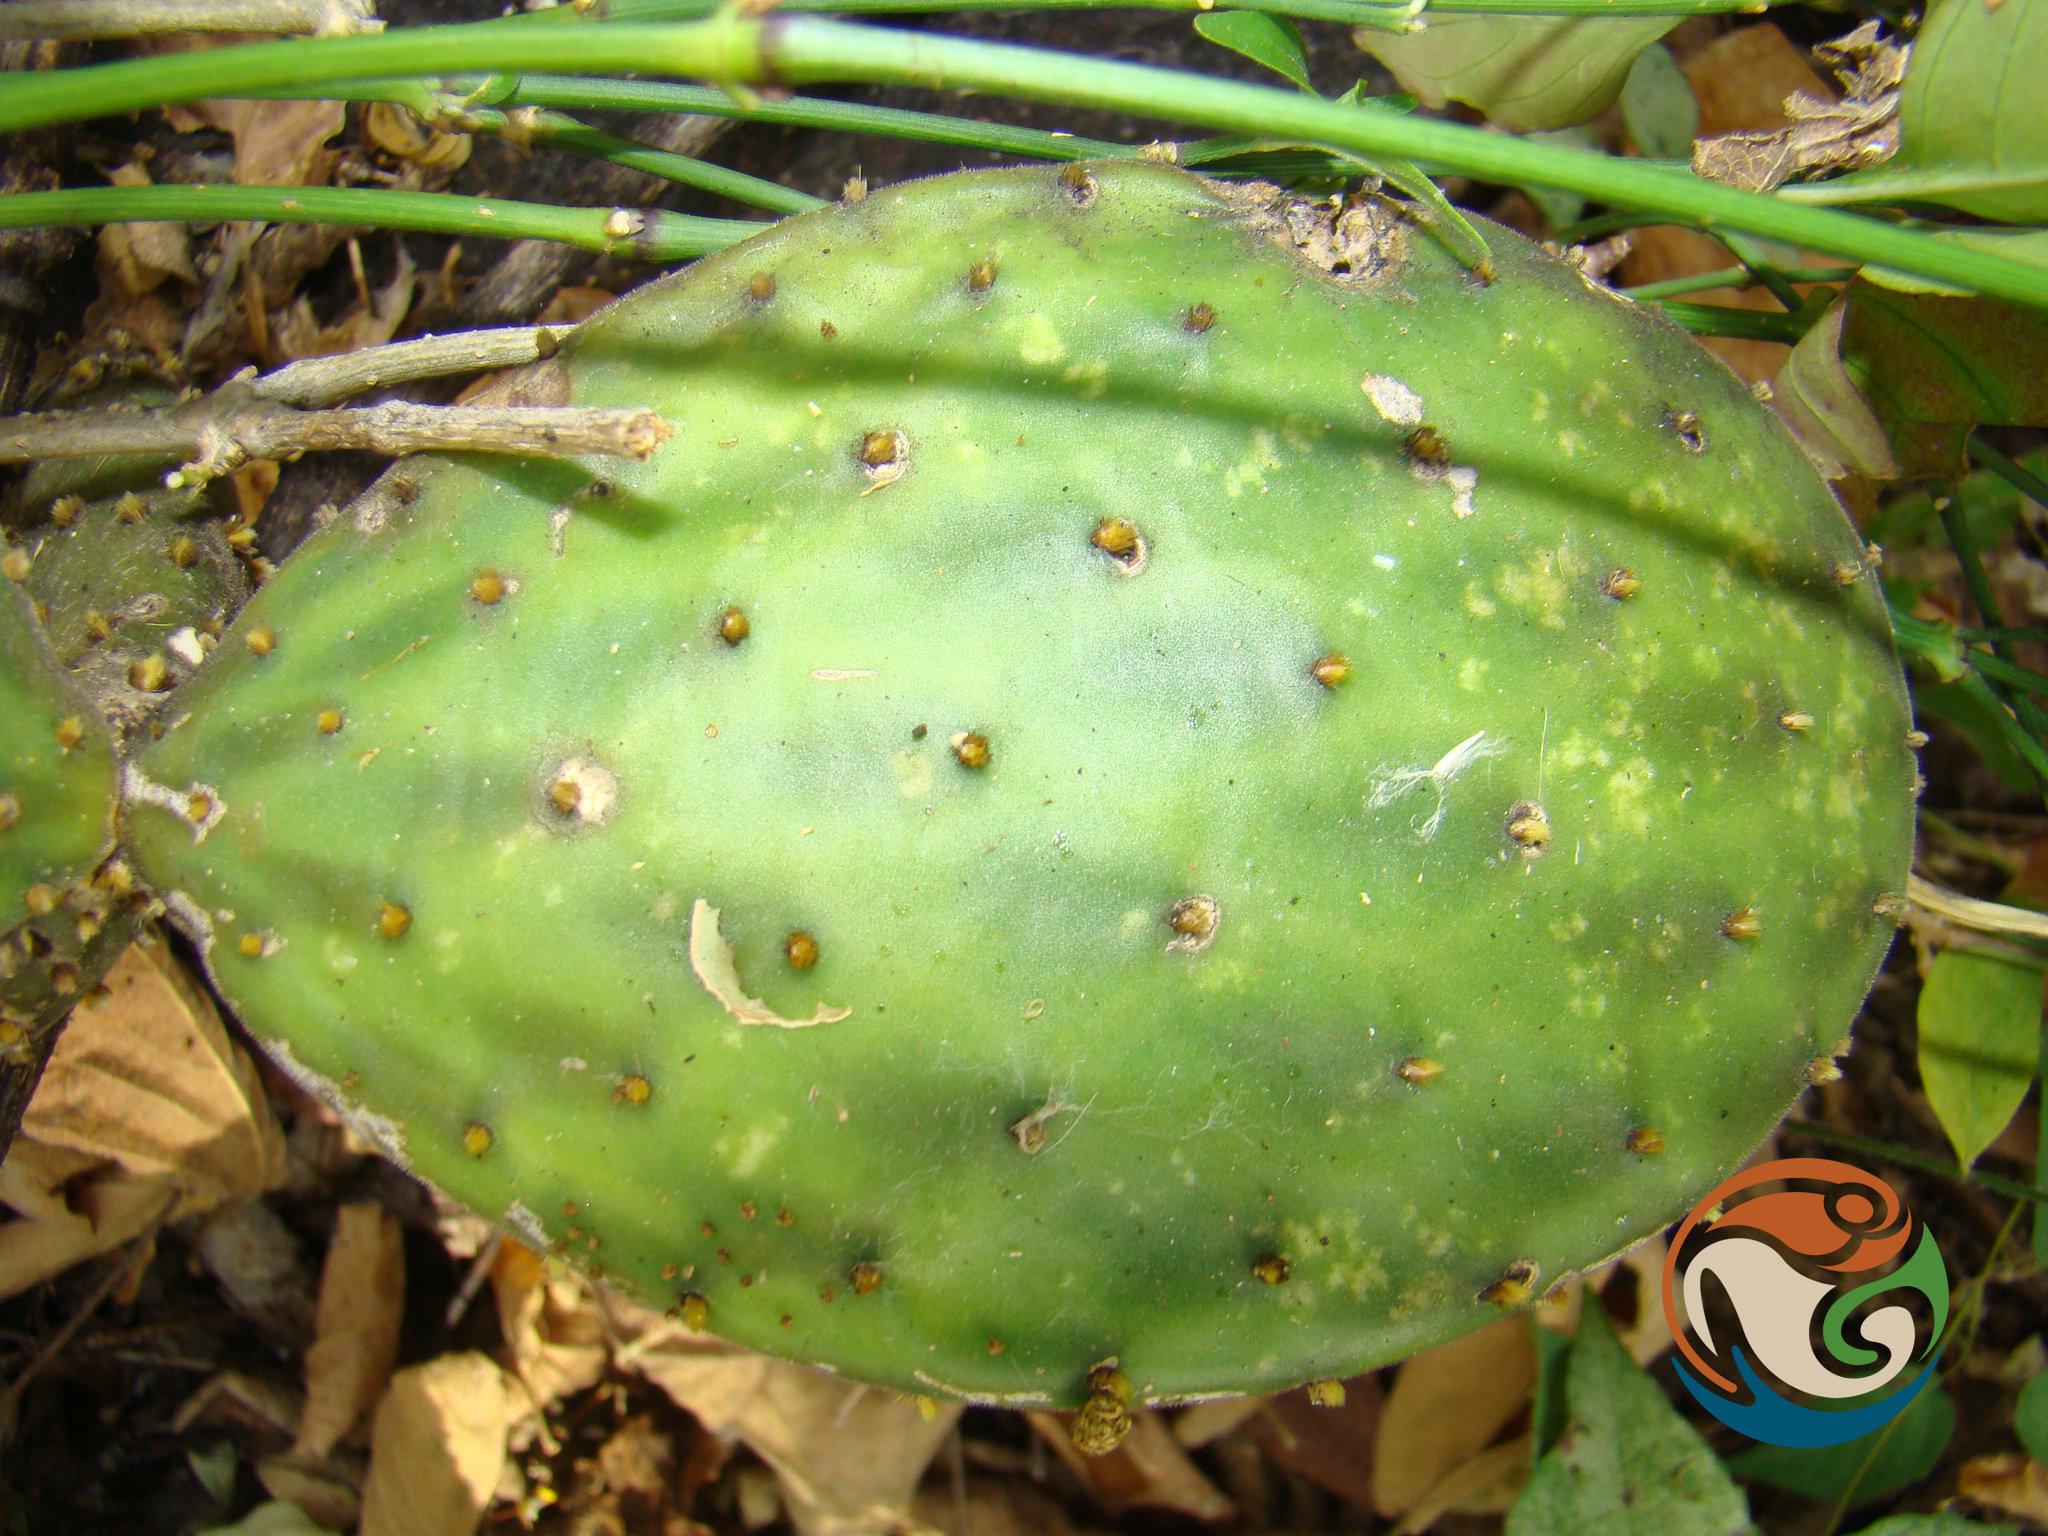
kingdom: Plantae
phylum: Tracheophyta
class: Magnoliopsida
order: Caryophyllales
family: Cactaceae
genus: Opuntia
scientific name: Opuntia decumbens
